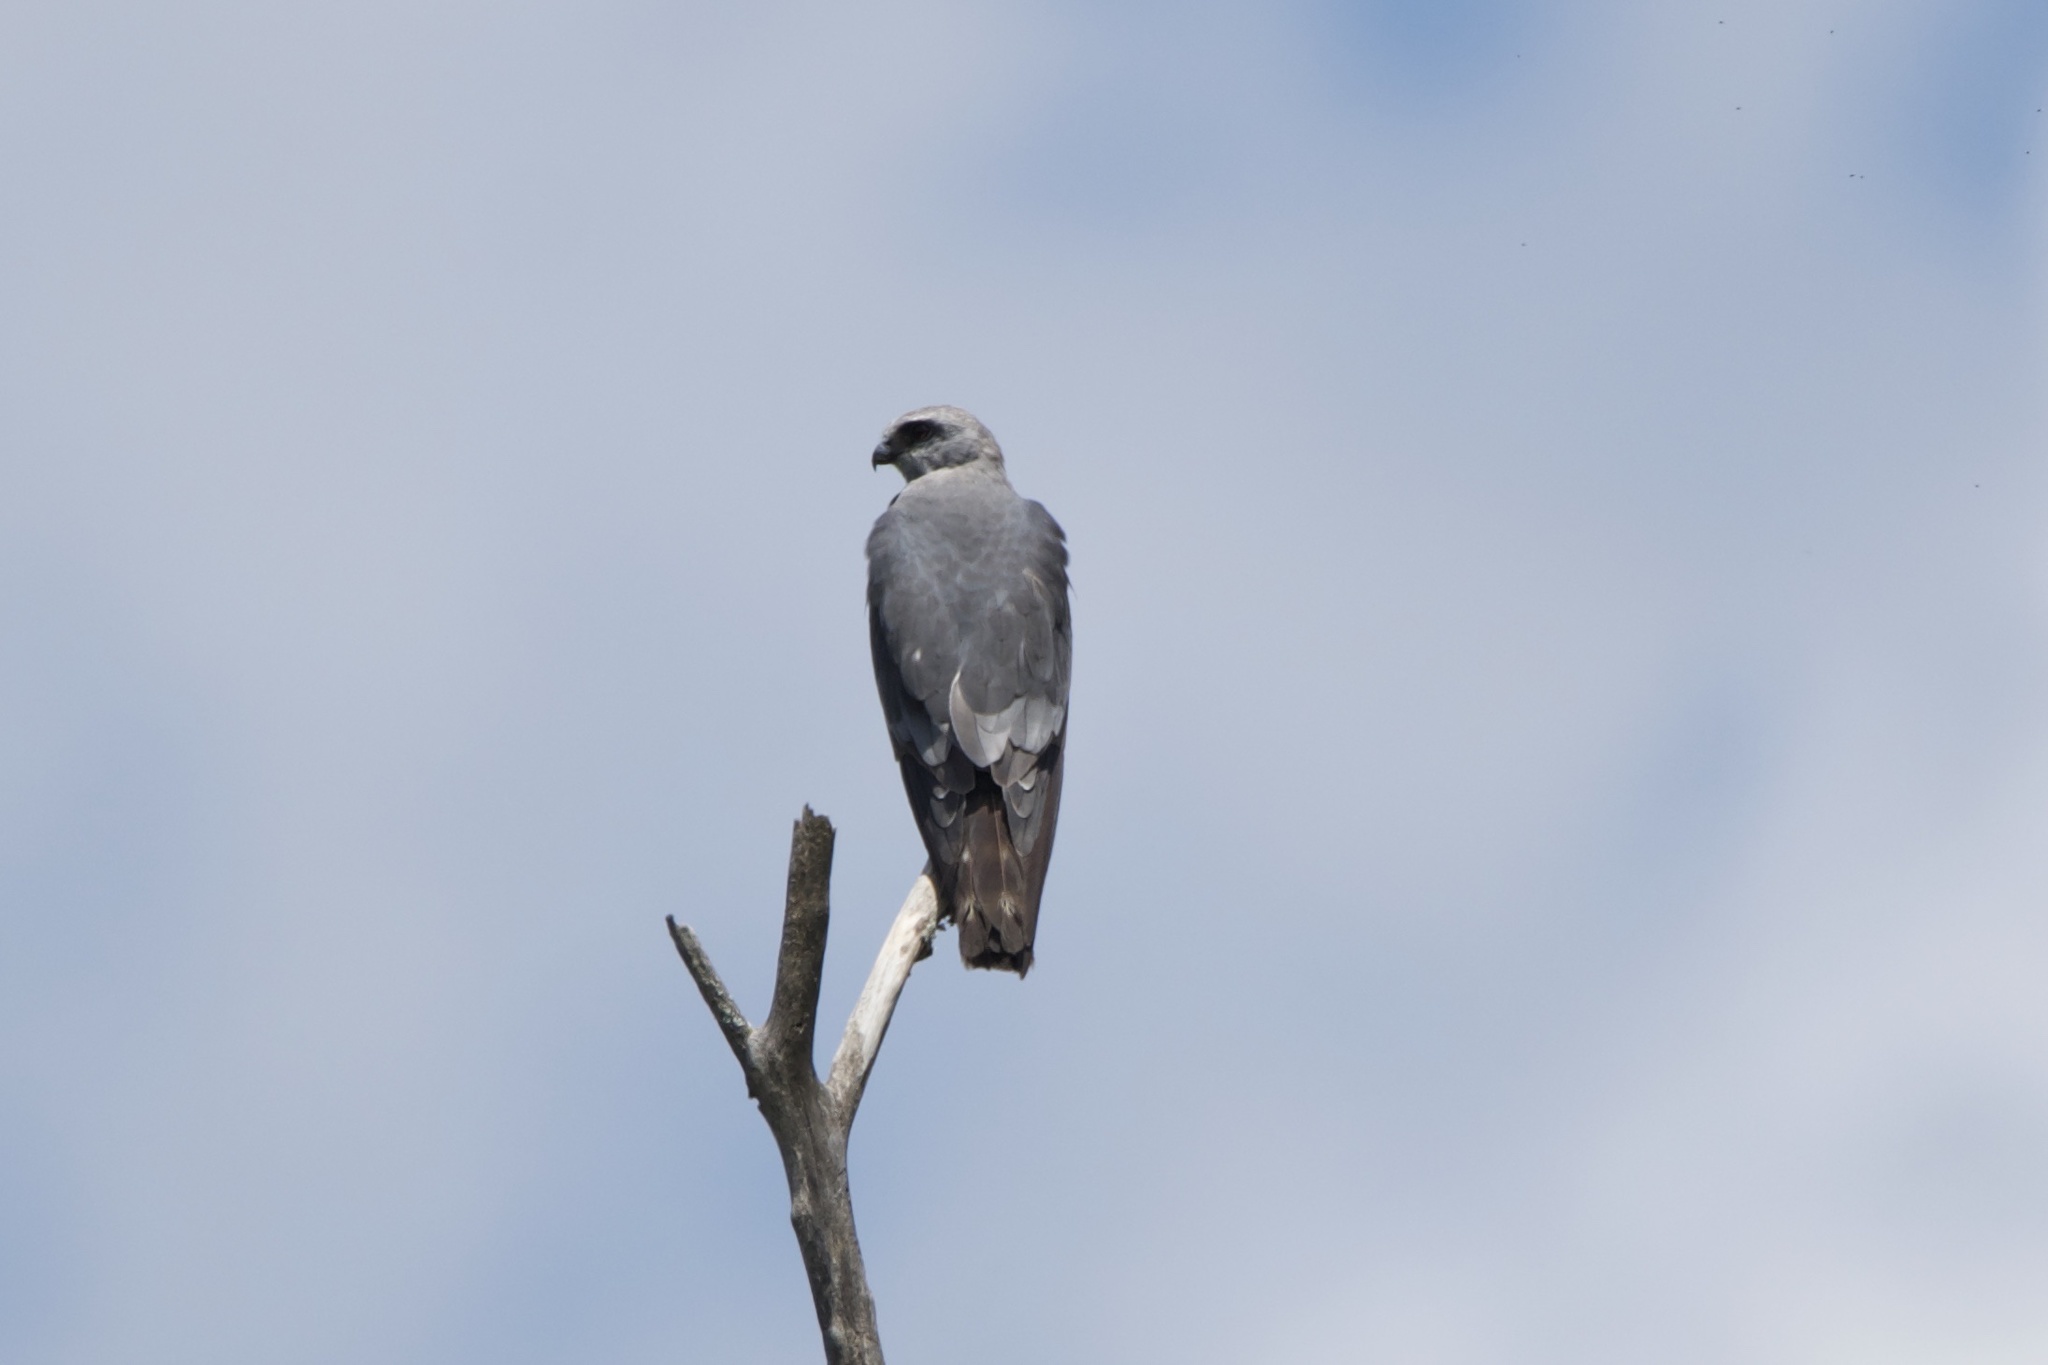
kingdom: Animalia
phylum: Chordata
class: Aves
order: Accipitriformes
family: Accipitridae
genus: Ictinia
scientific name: Ictinia mississippiensis
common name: Mississippi kite
